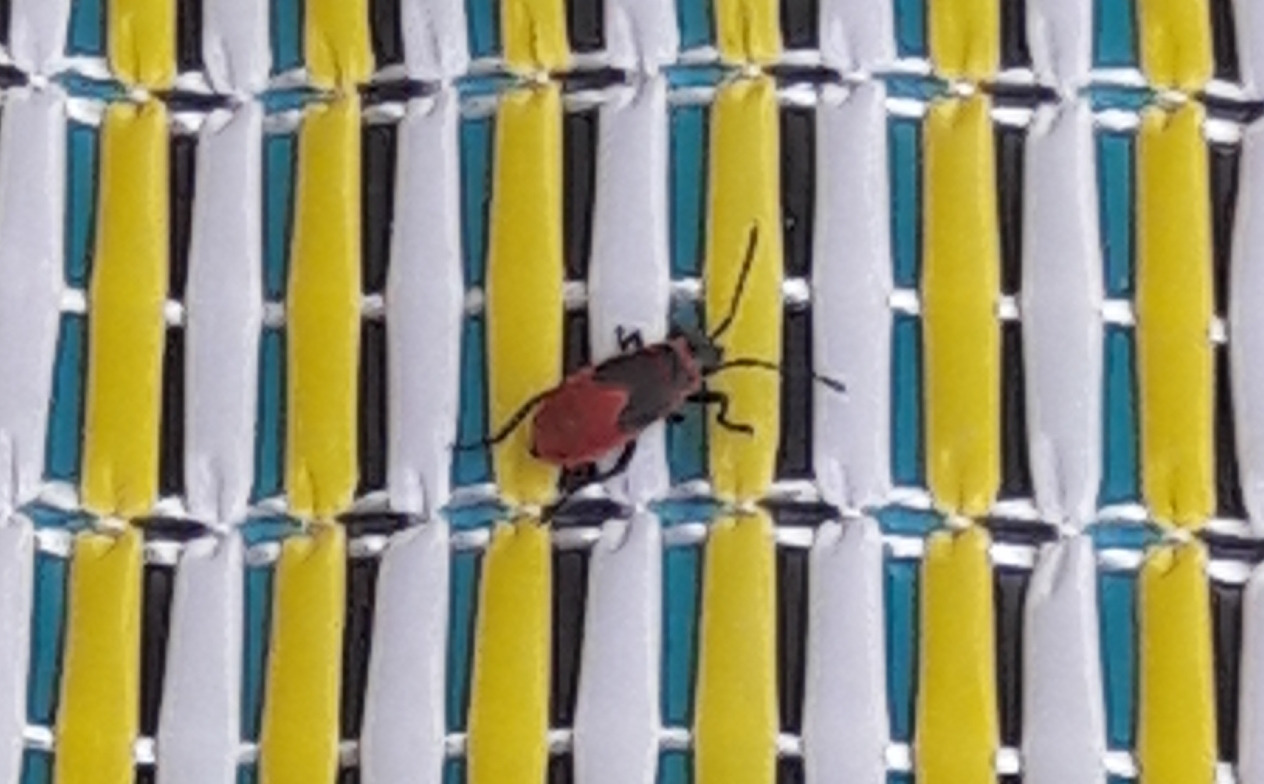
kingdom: Animalia
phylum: Arthropoda
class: Insecta
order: Hemiptera
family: Pyrrhocoridae
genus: Pyrrhocoris
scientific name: Pyrrhocoris apterus
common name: Firebug
